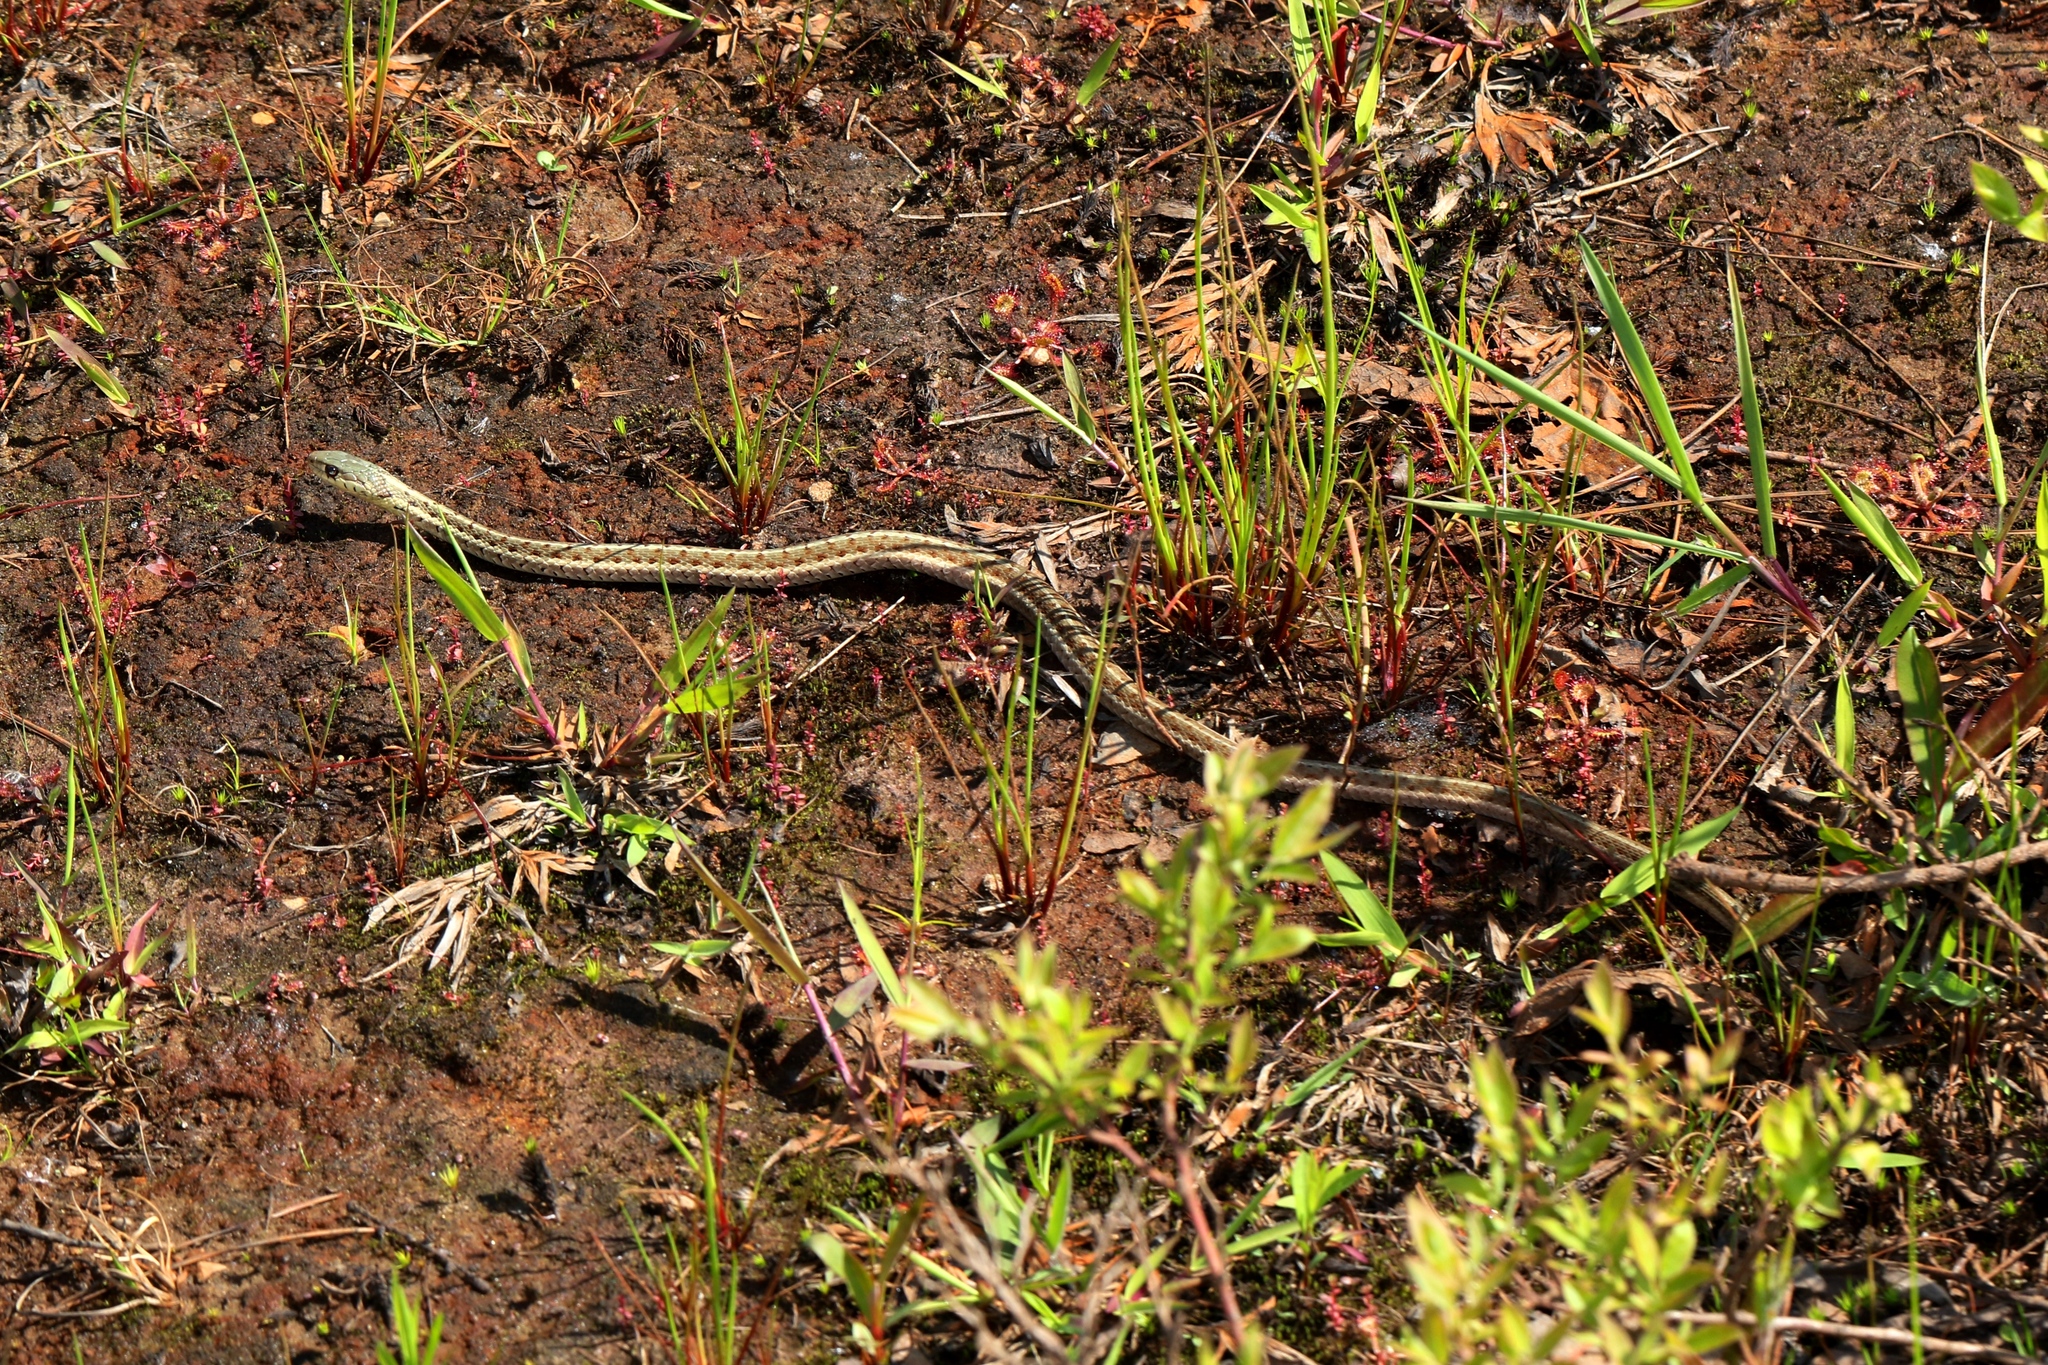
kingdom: Animalia
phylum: Chordata
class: Squamata
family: Colubridae
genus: Thamnophis
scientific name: Thamnophis sirtalis
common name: Common garter snake
